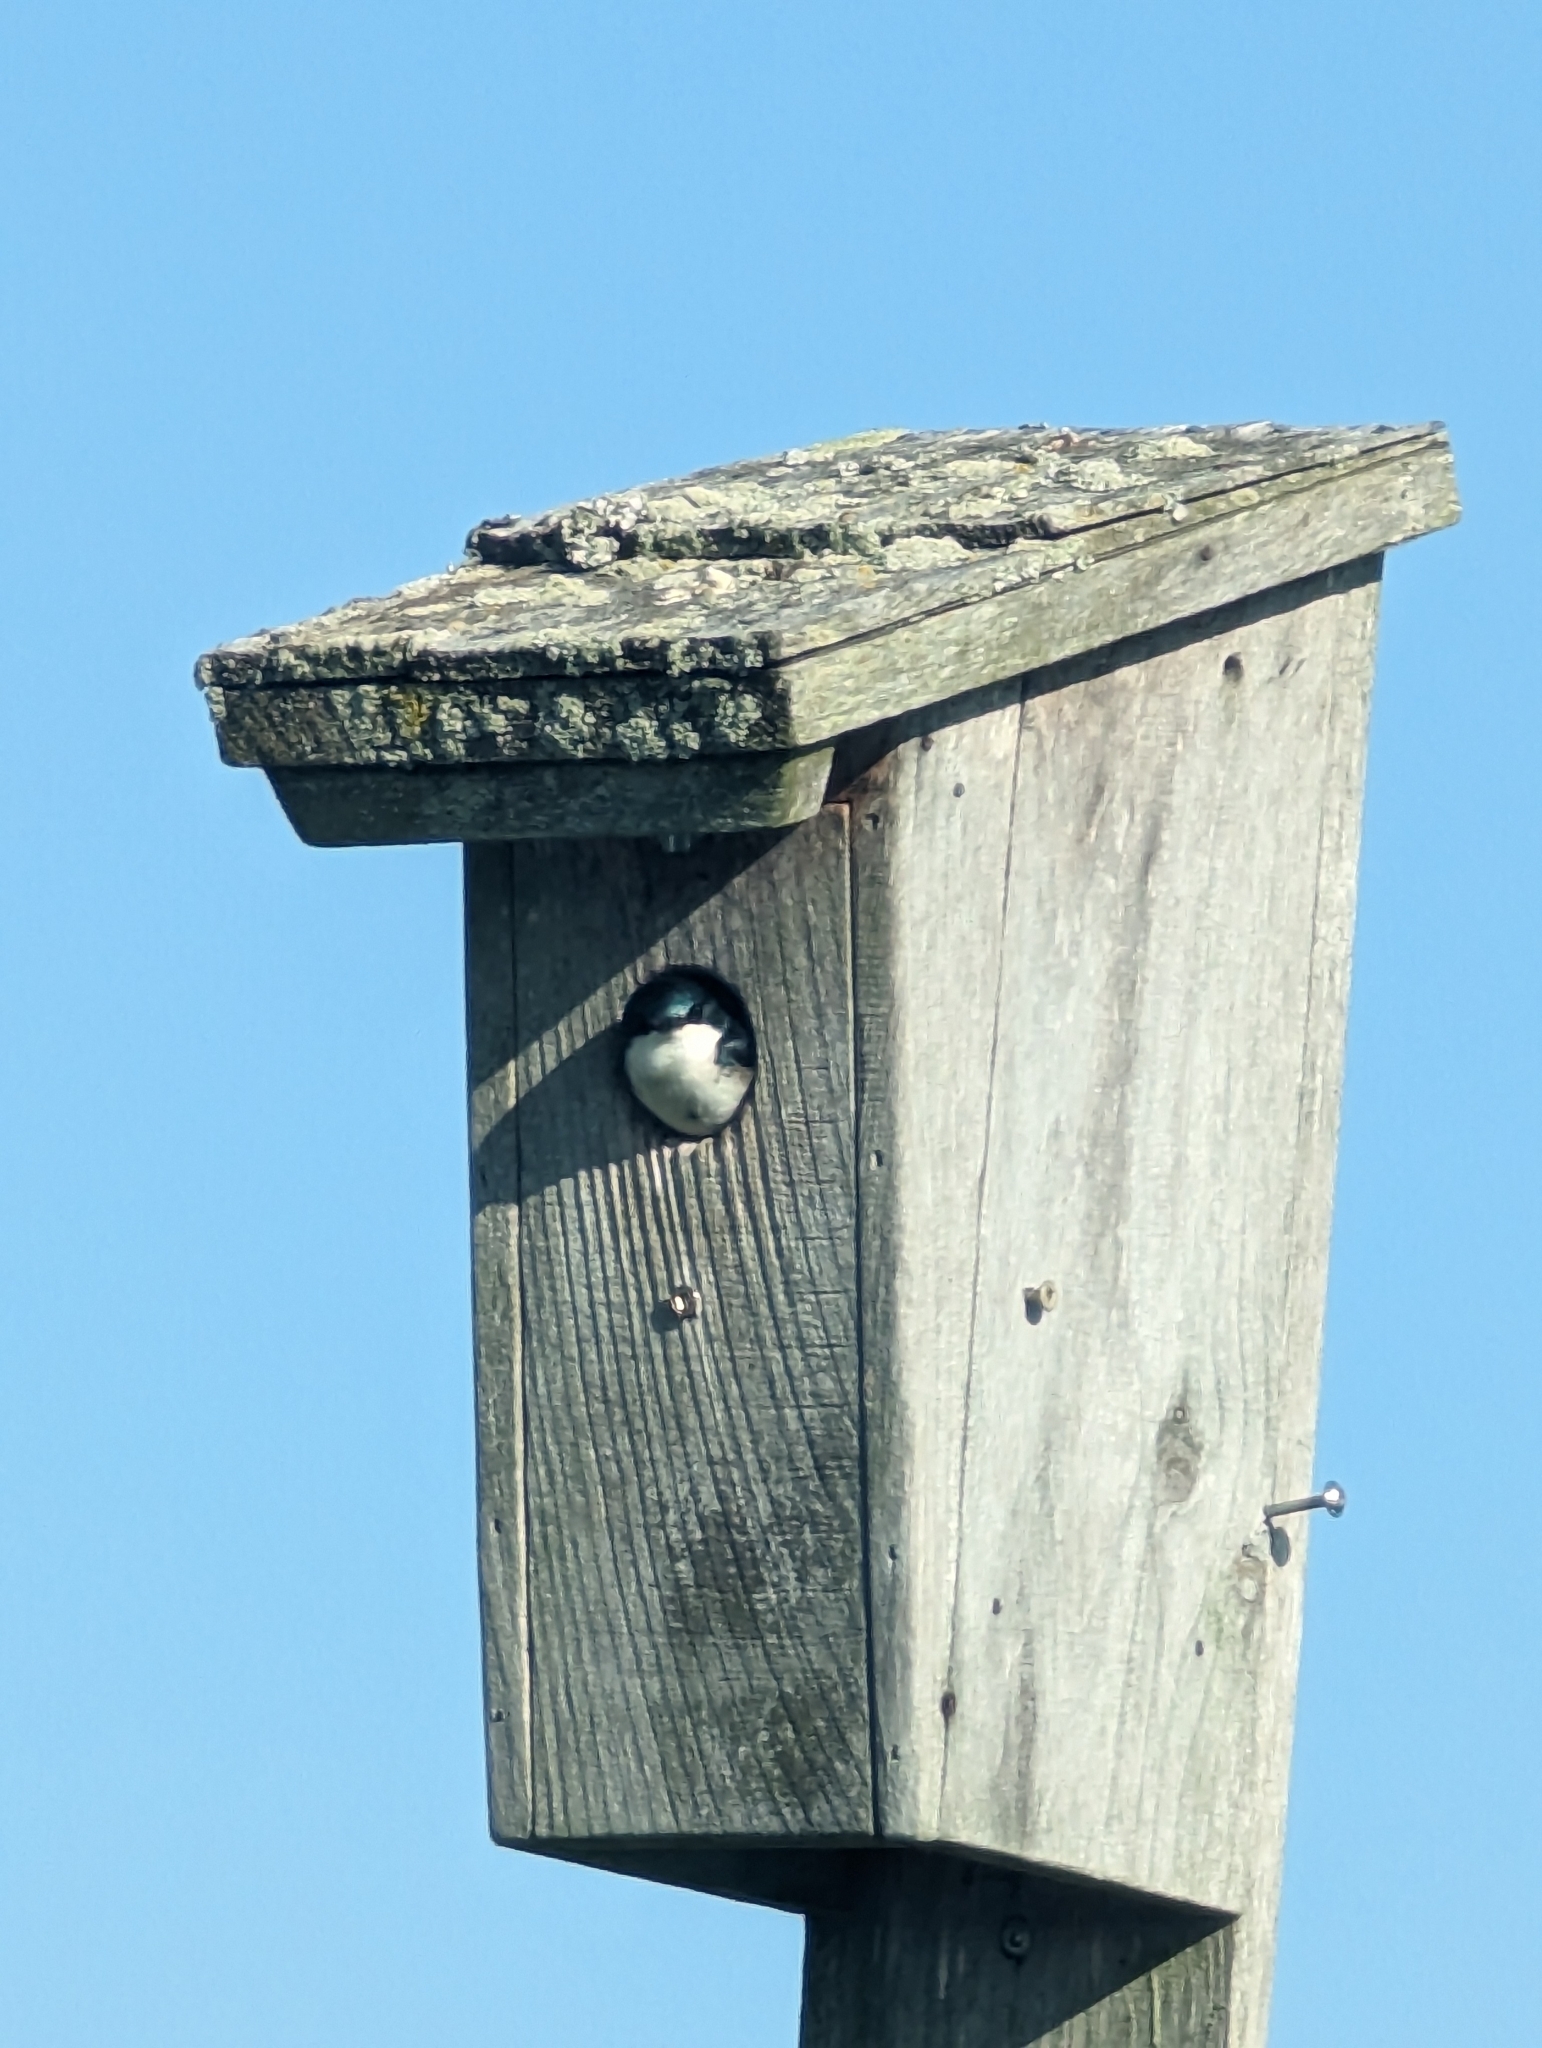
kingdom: Animalia
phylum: Chordata
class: Aves
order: Passeriformes
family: Hirundinidae
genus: Tachycineta
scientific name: Tachycineta bicolor
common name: Tree swallow
